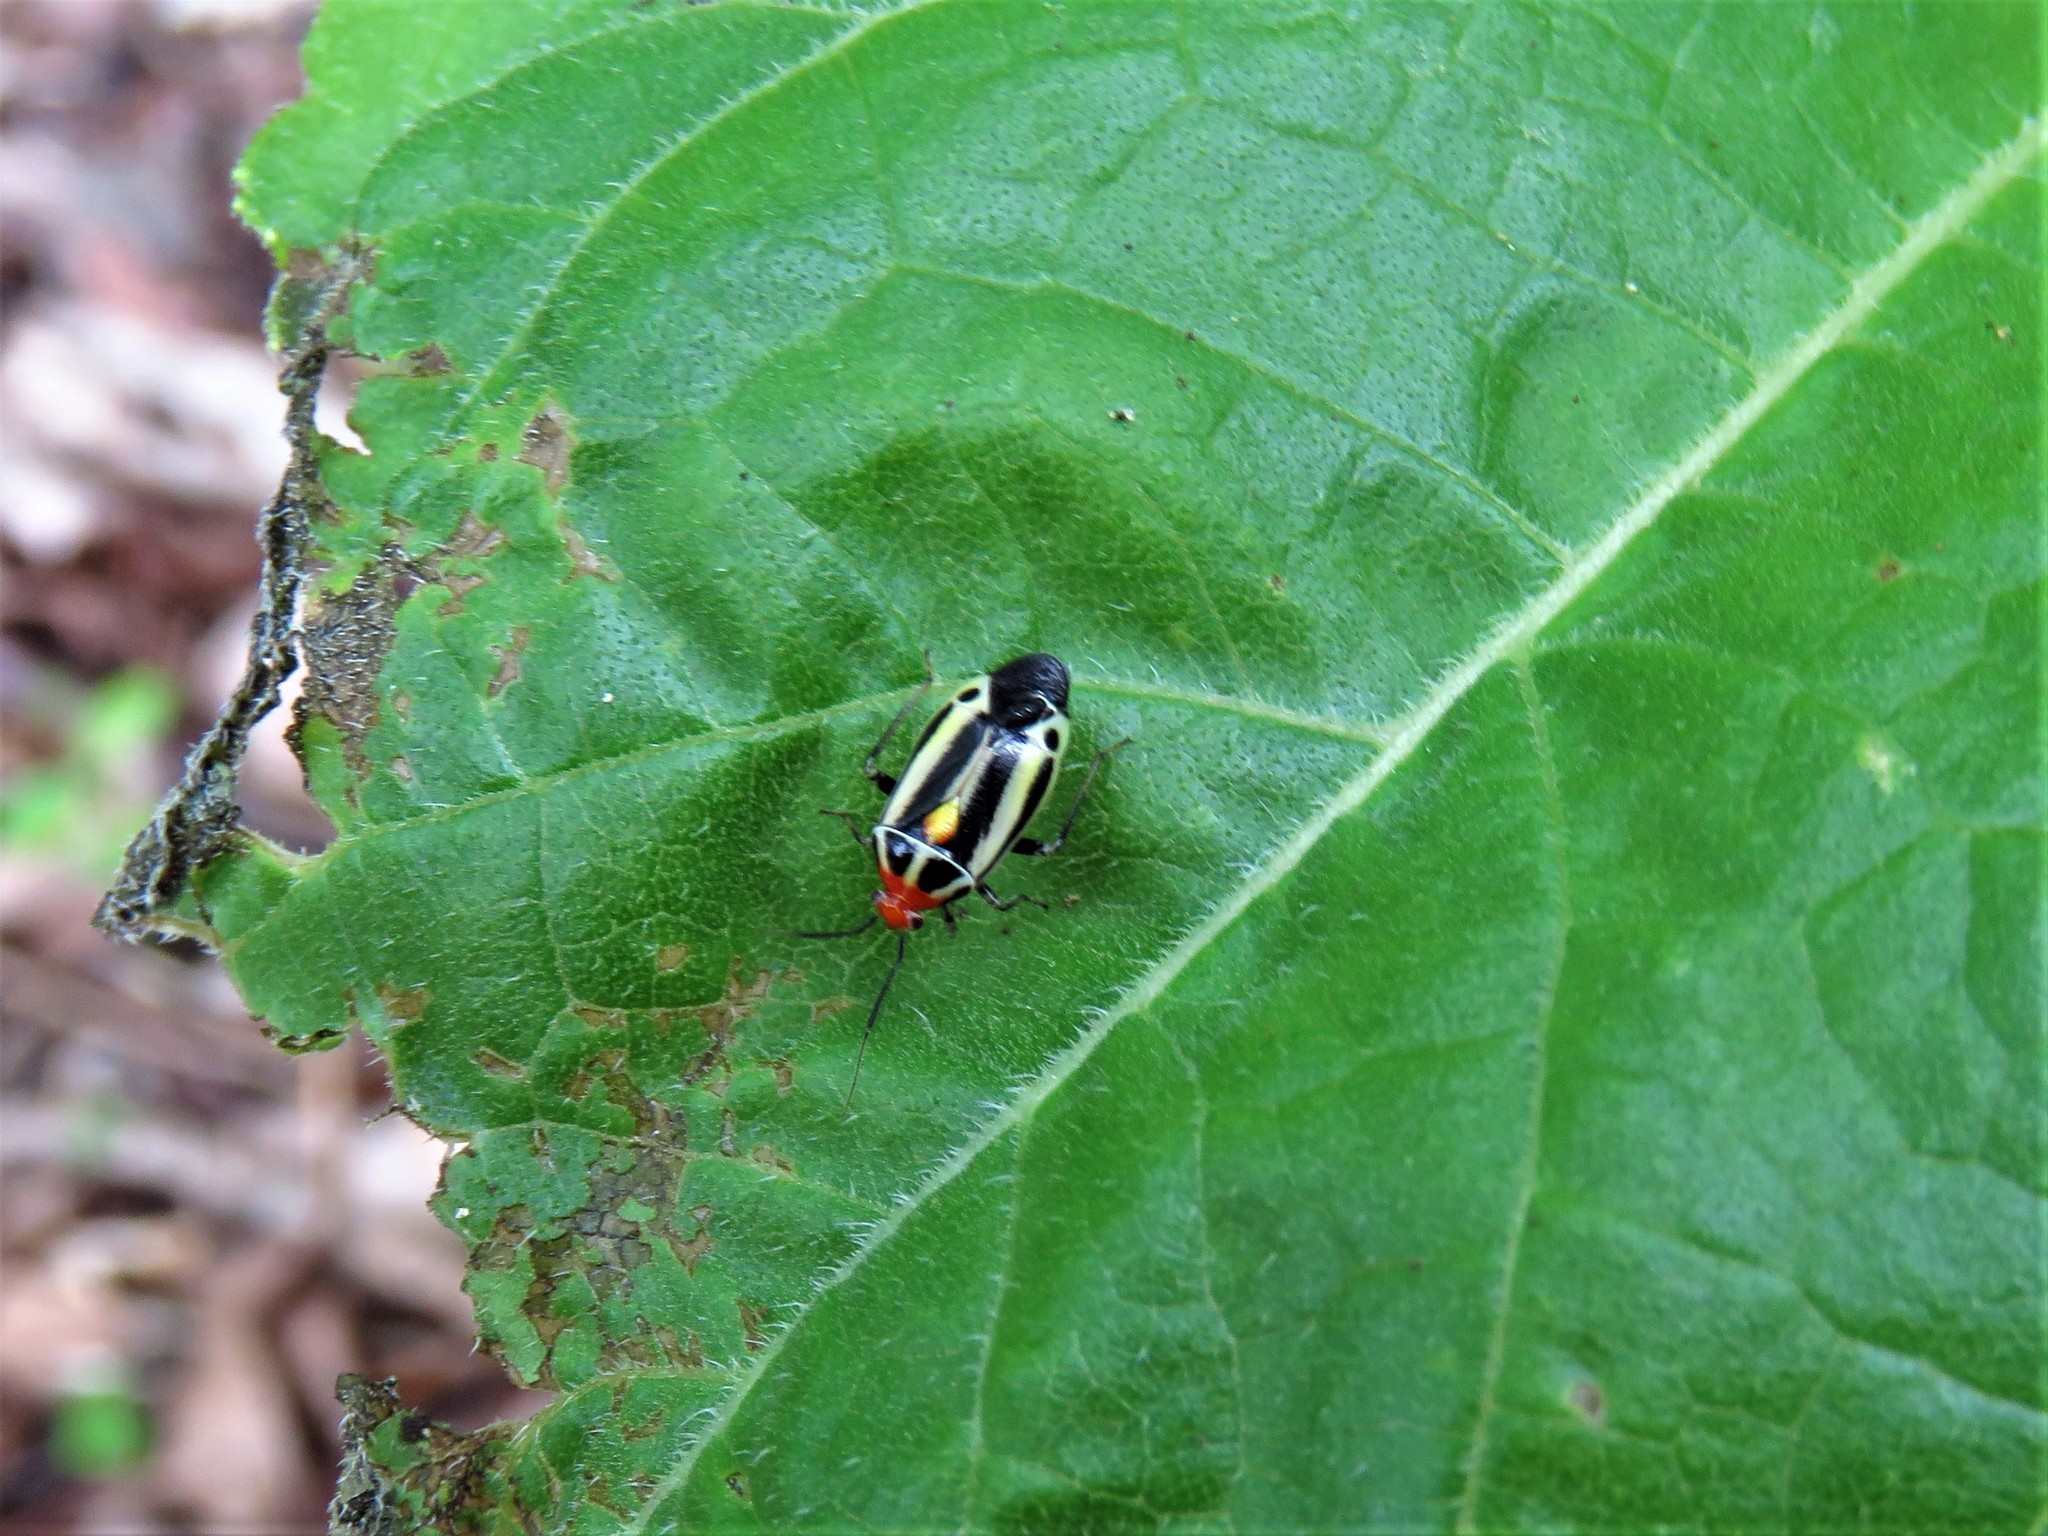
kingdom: Animalia
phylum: Arthropoda
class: Insecta
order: Hemiptera
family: Miridae
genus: Poecilocapsus
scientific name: Poecilocapsus lineatus
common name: Four-lined plant bug
